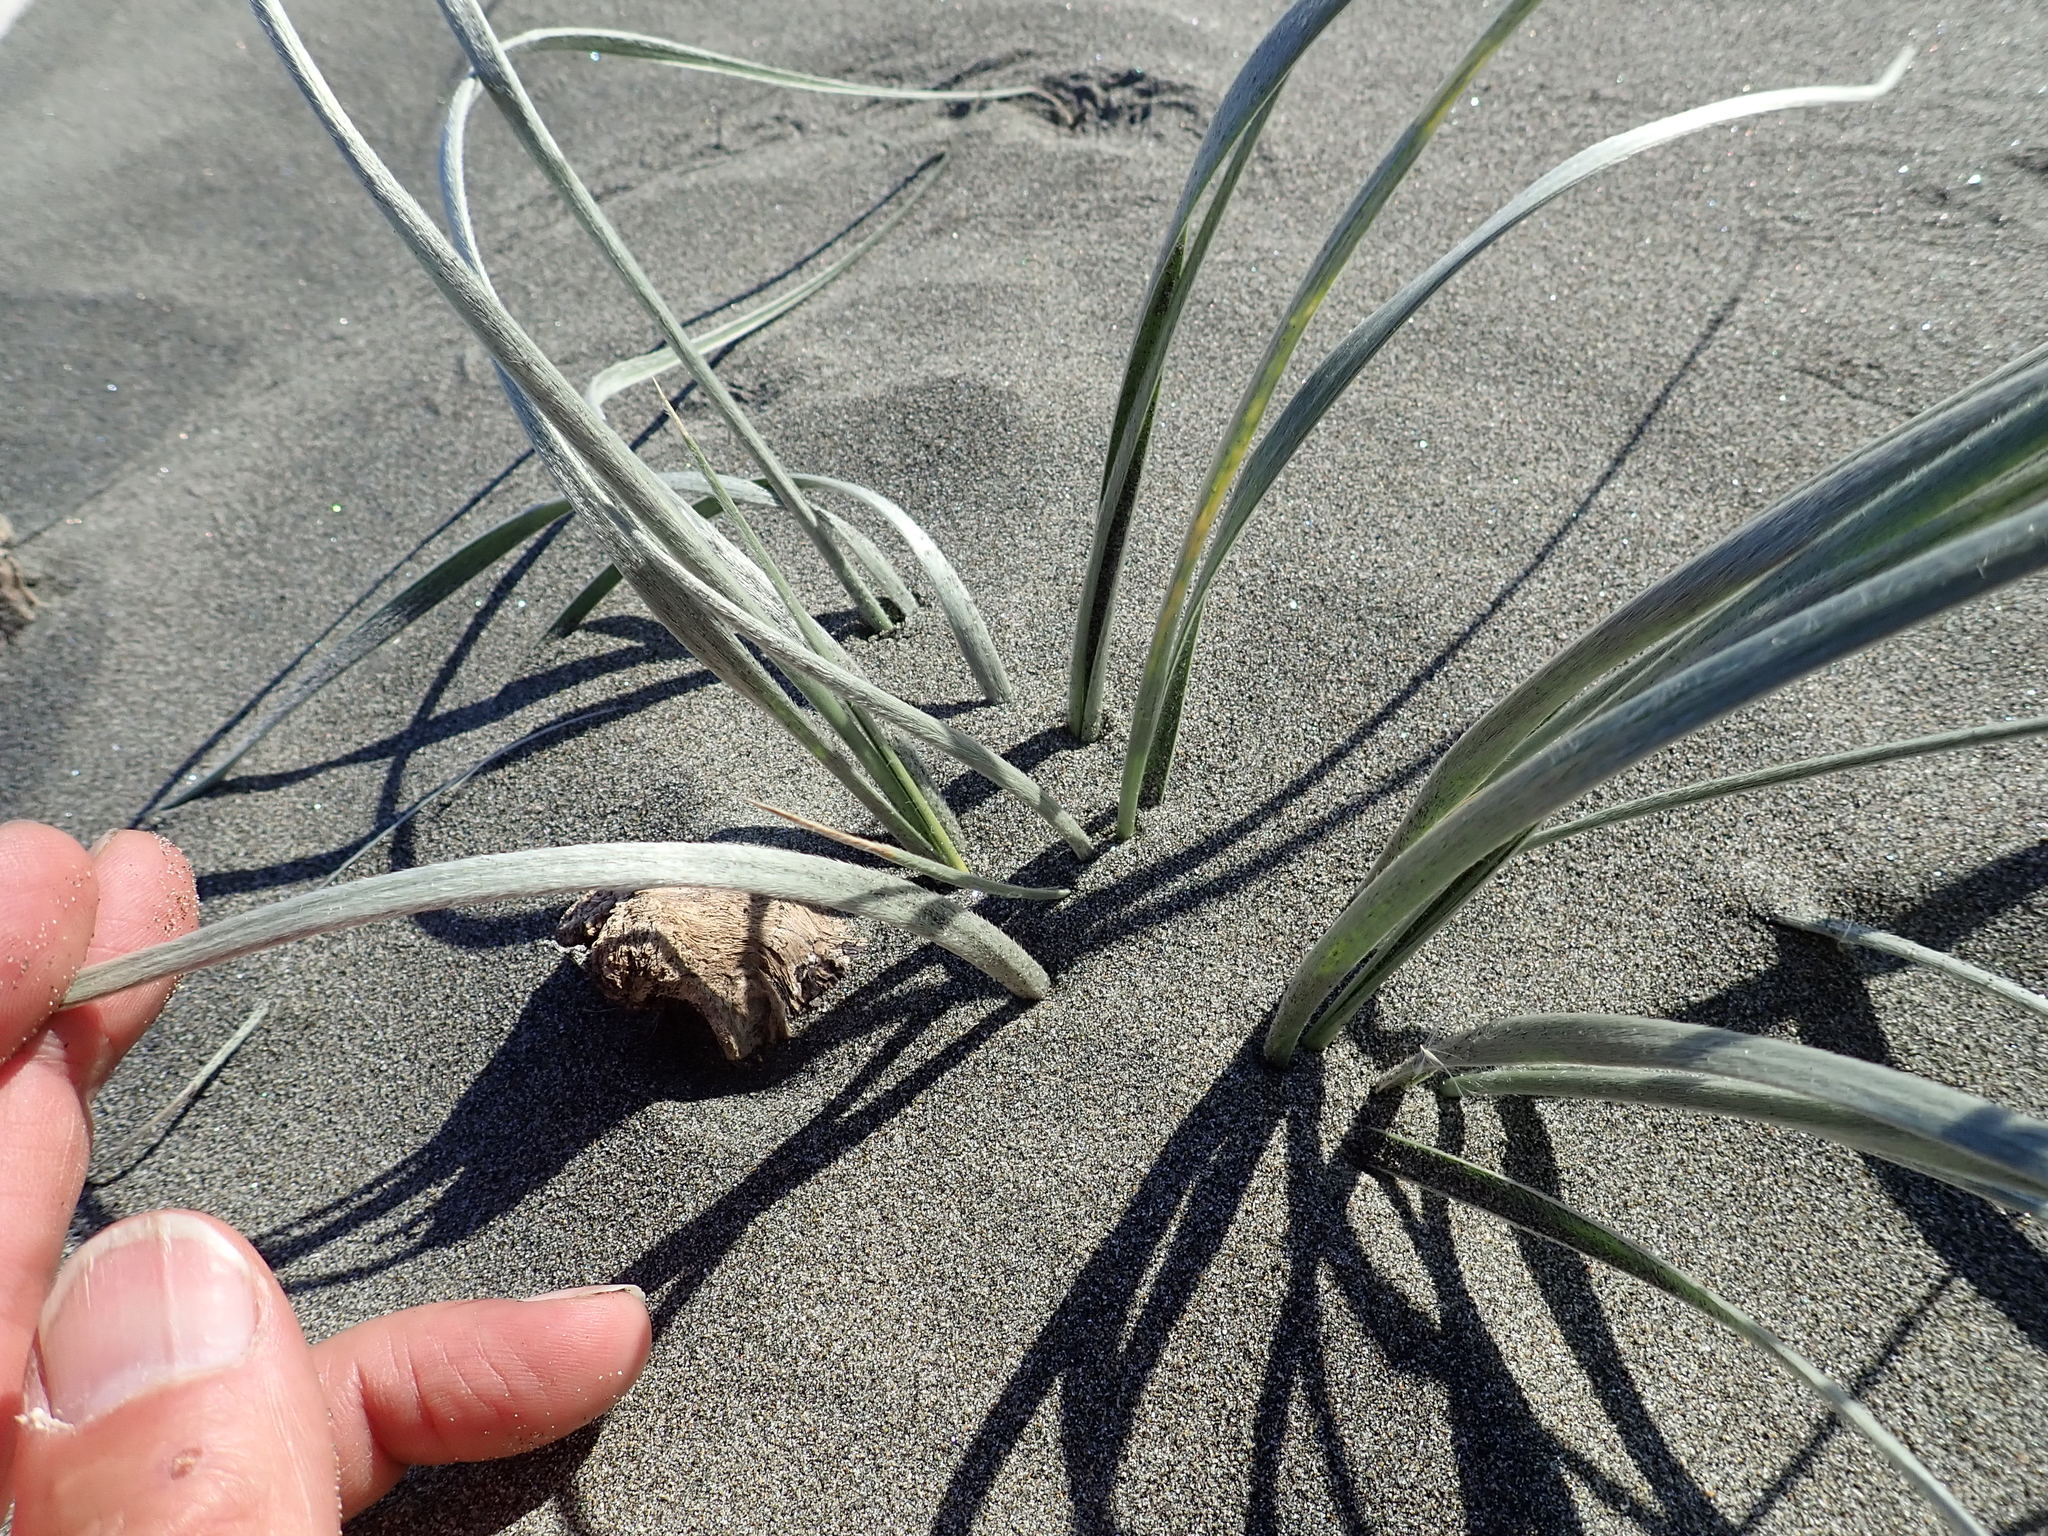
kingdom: Plantae
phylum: Tracheophyta
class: Liliopsida
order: Poales
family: Poaceae
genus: Spinifex
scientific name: Spinifex sericeus
